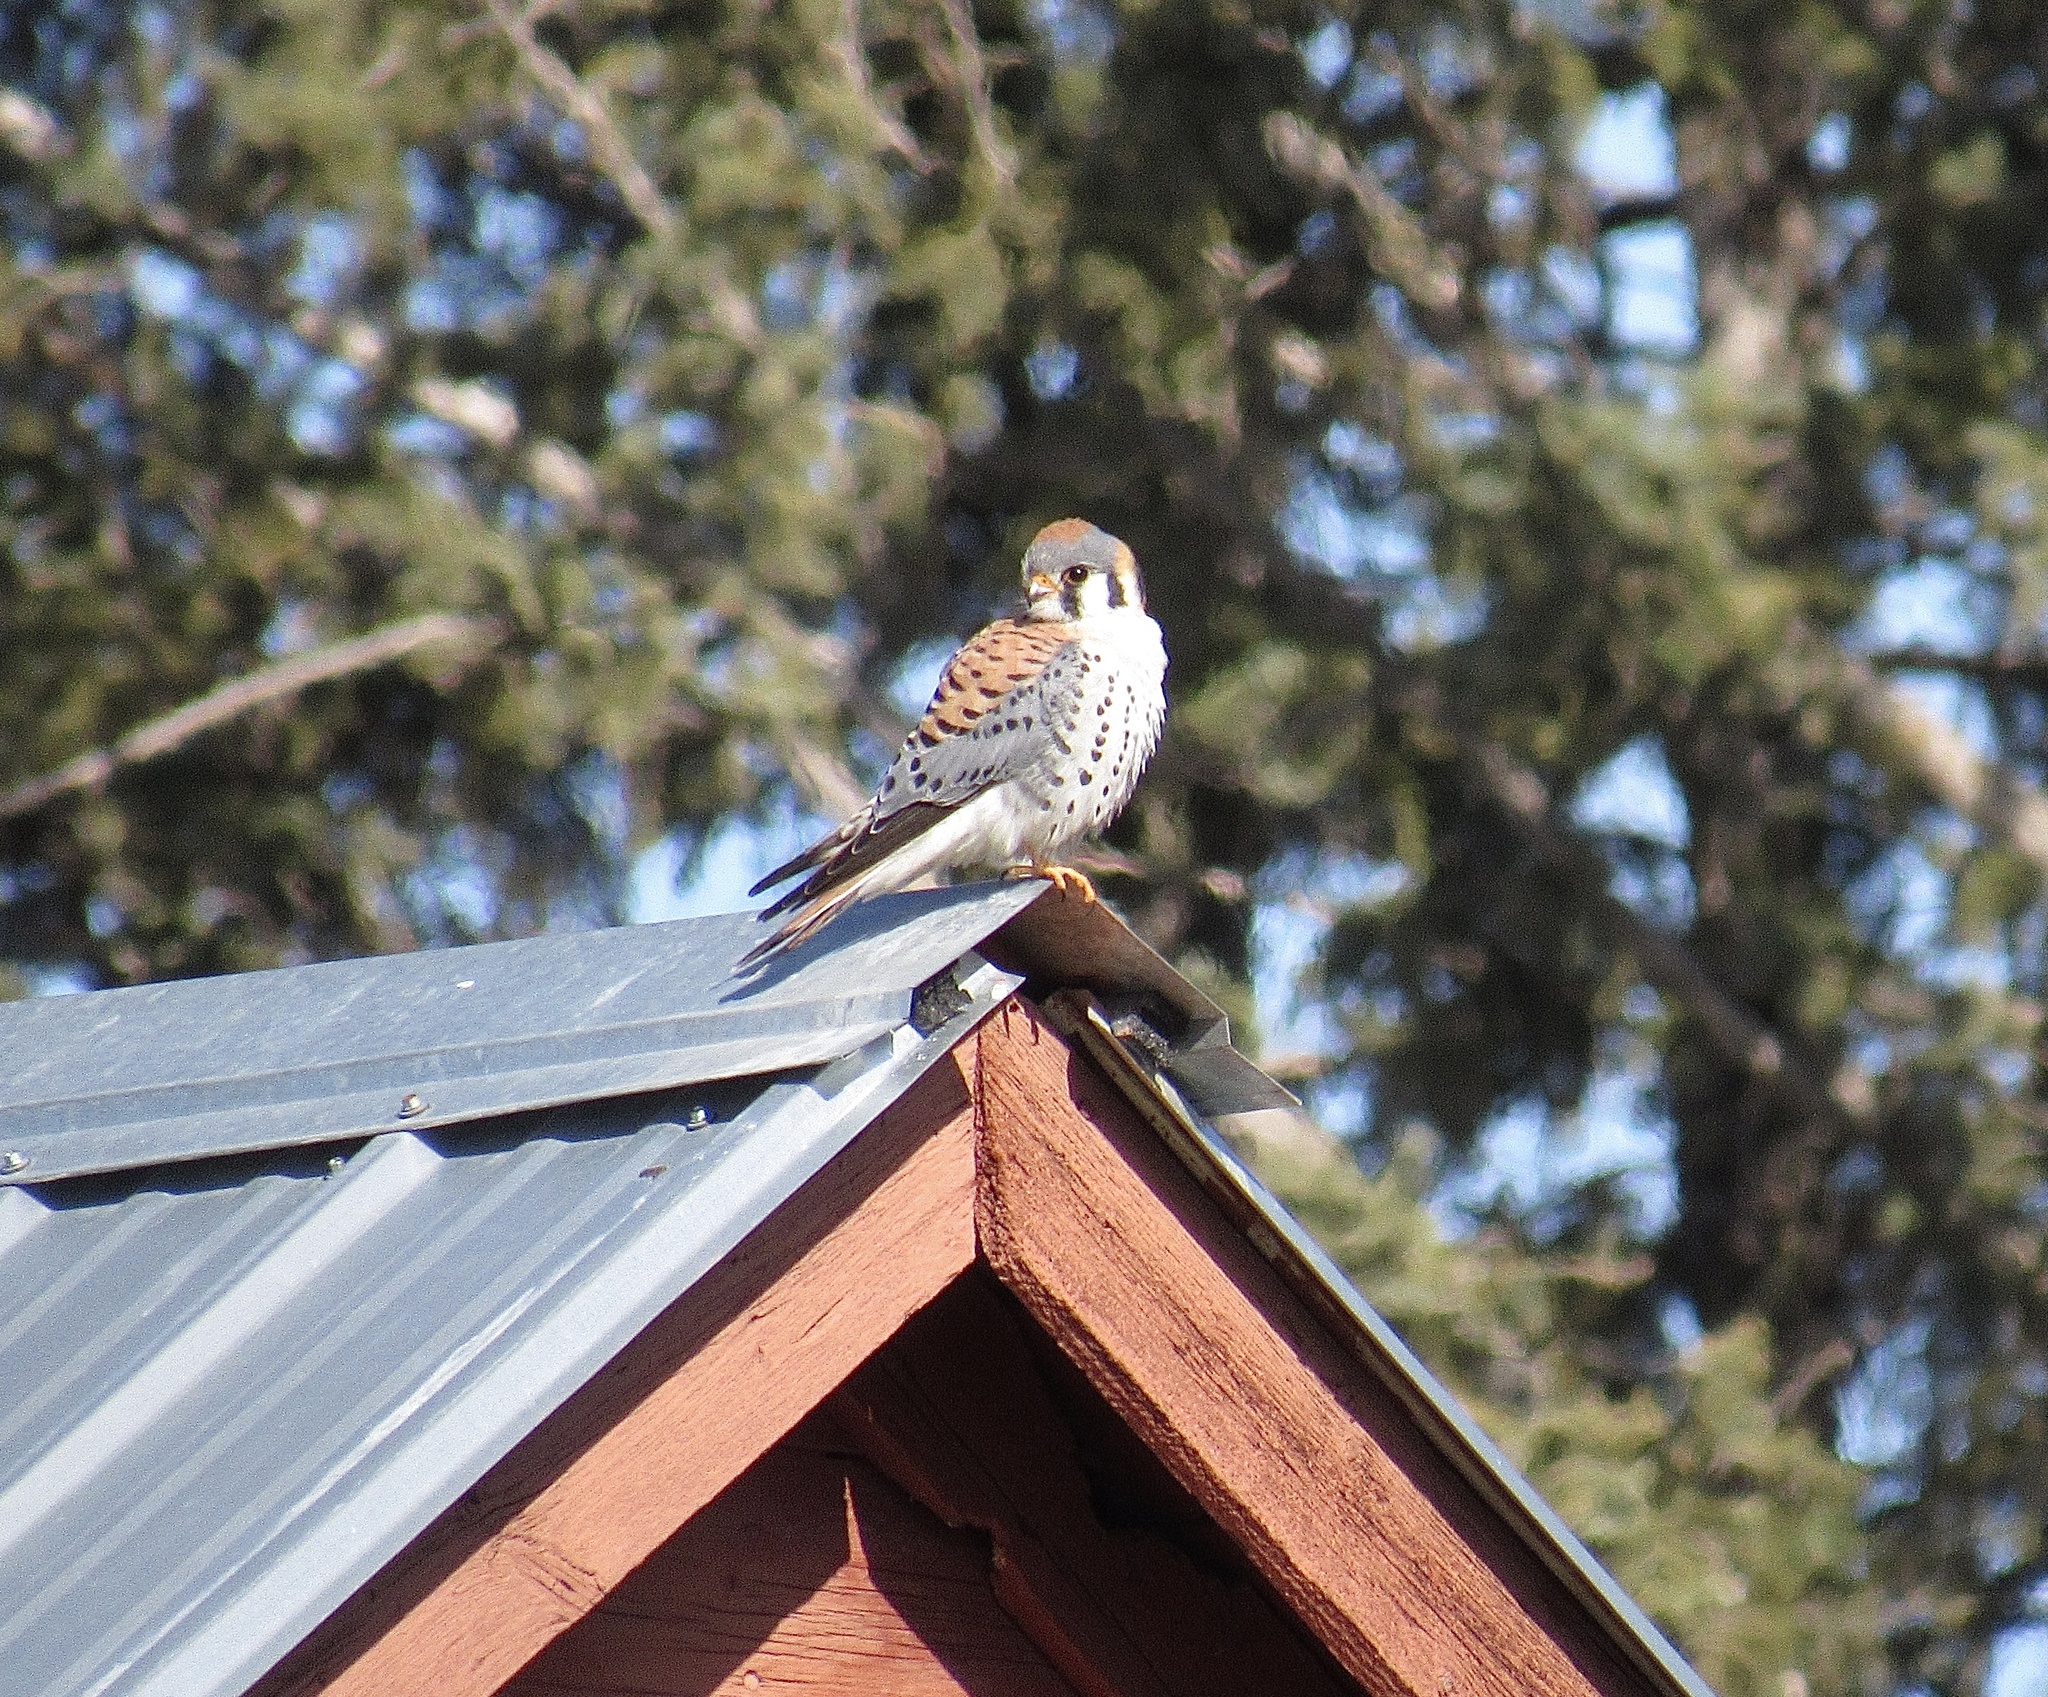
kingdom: Animalia
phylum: Chordata
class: Aves
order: Falconiformes
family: Falconidae
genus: Falco
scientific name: Falco sparverius
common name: American kestrel
